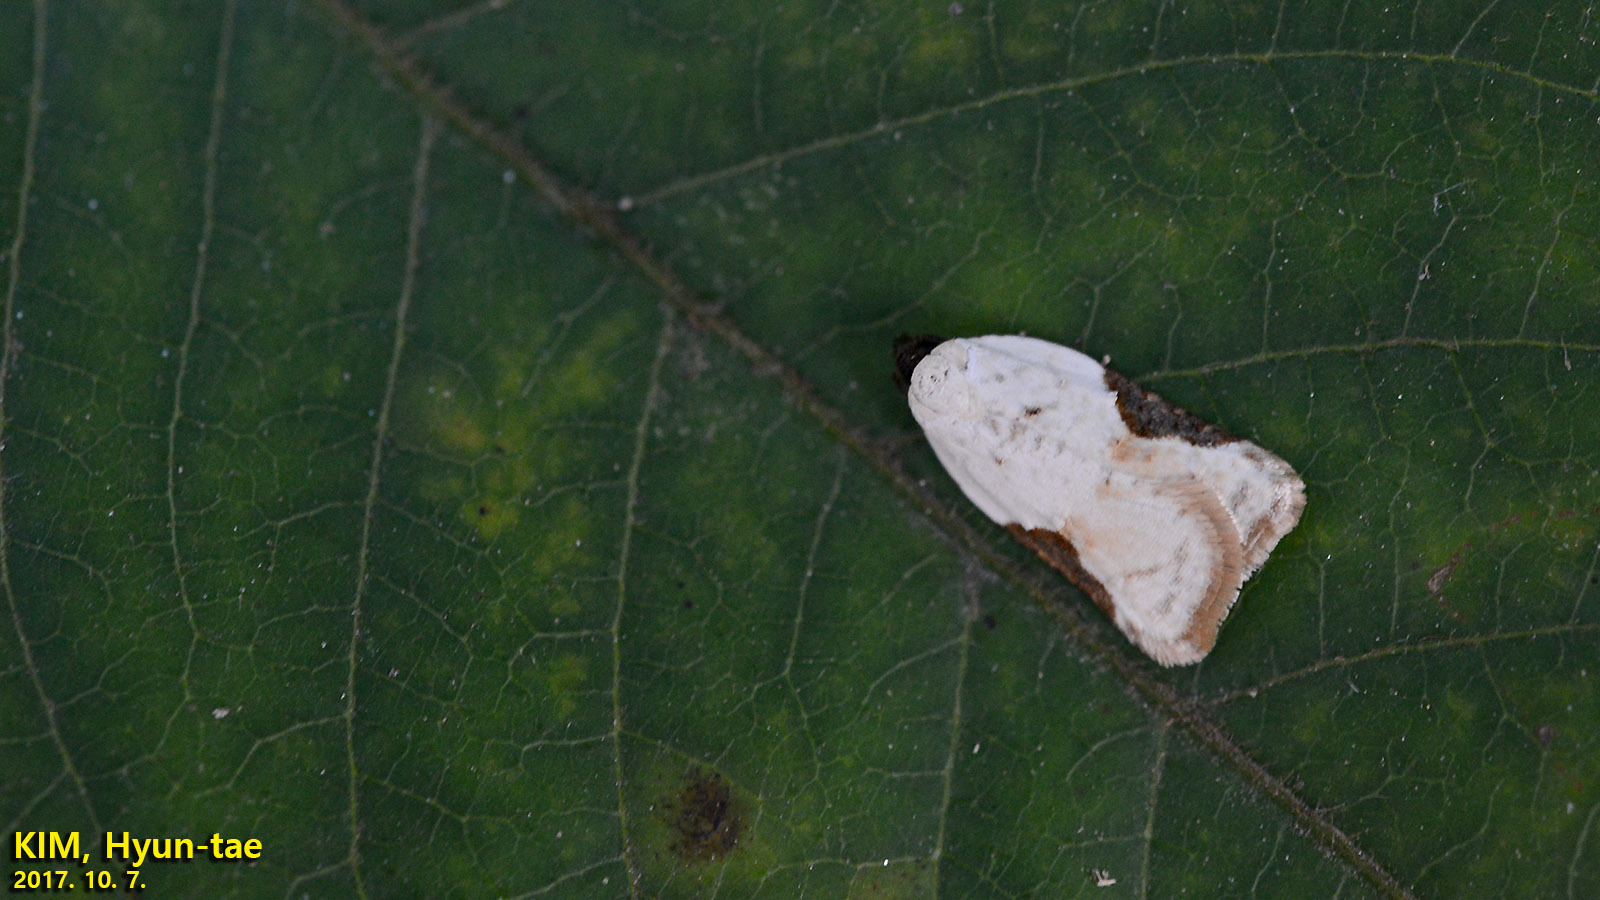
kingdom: Animalia
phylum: Arthropoda
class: Insecta
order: Lepidoptera
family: Tortricidae
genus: Acleris
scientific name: Acleris takeuchii
